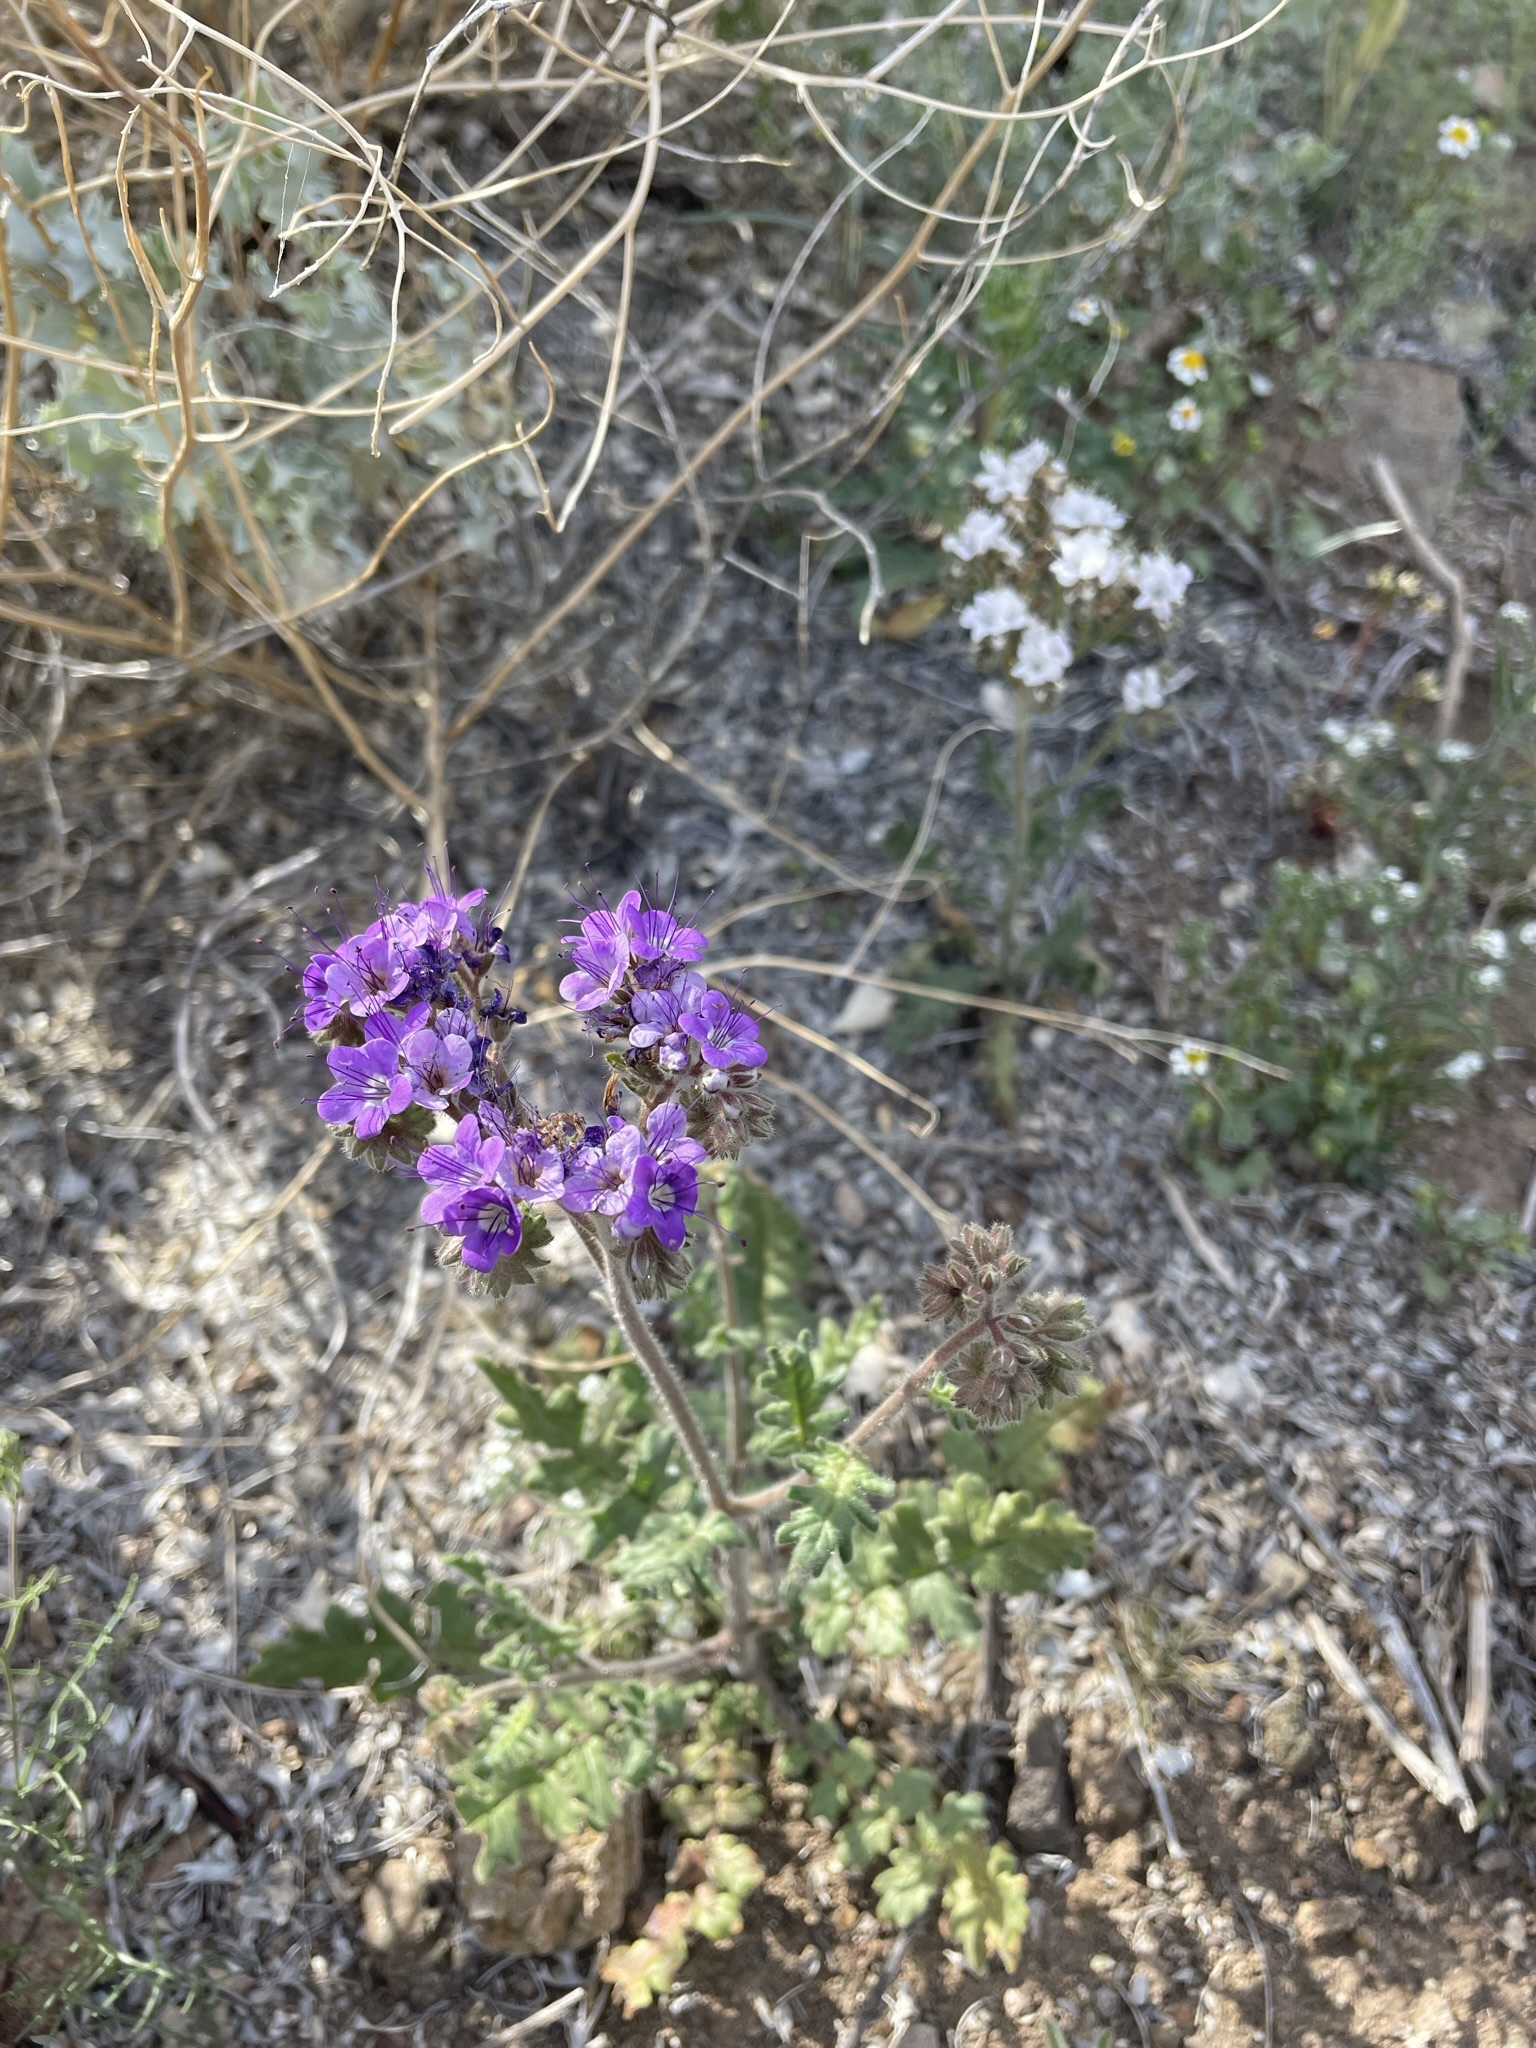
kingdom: Plantae
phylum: Tracheophyta
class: Magnoliopsida
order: Boraginales
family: Hydrophyllaceae
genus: Phacelia
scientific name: Phacelia crenulata
